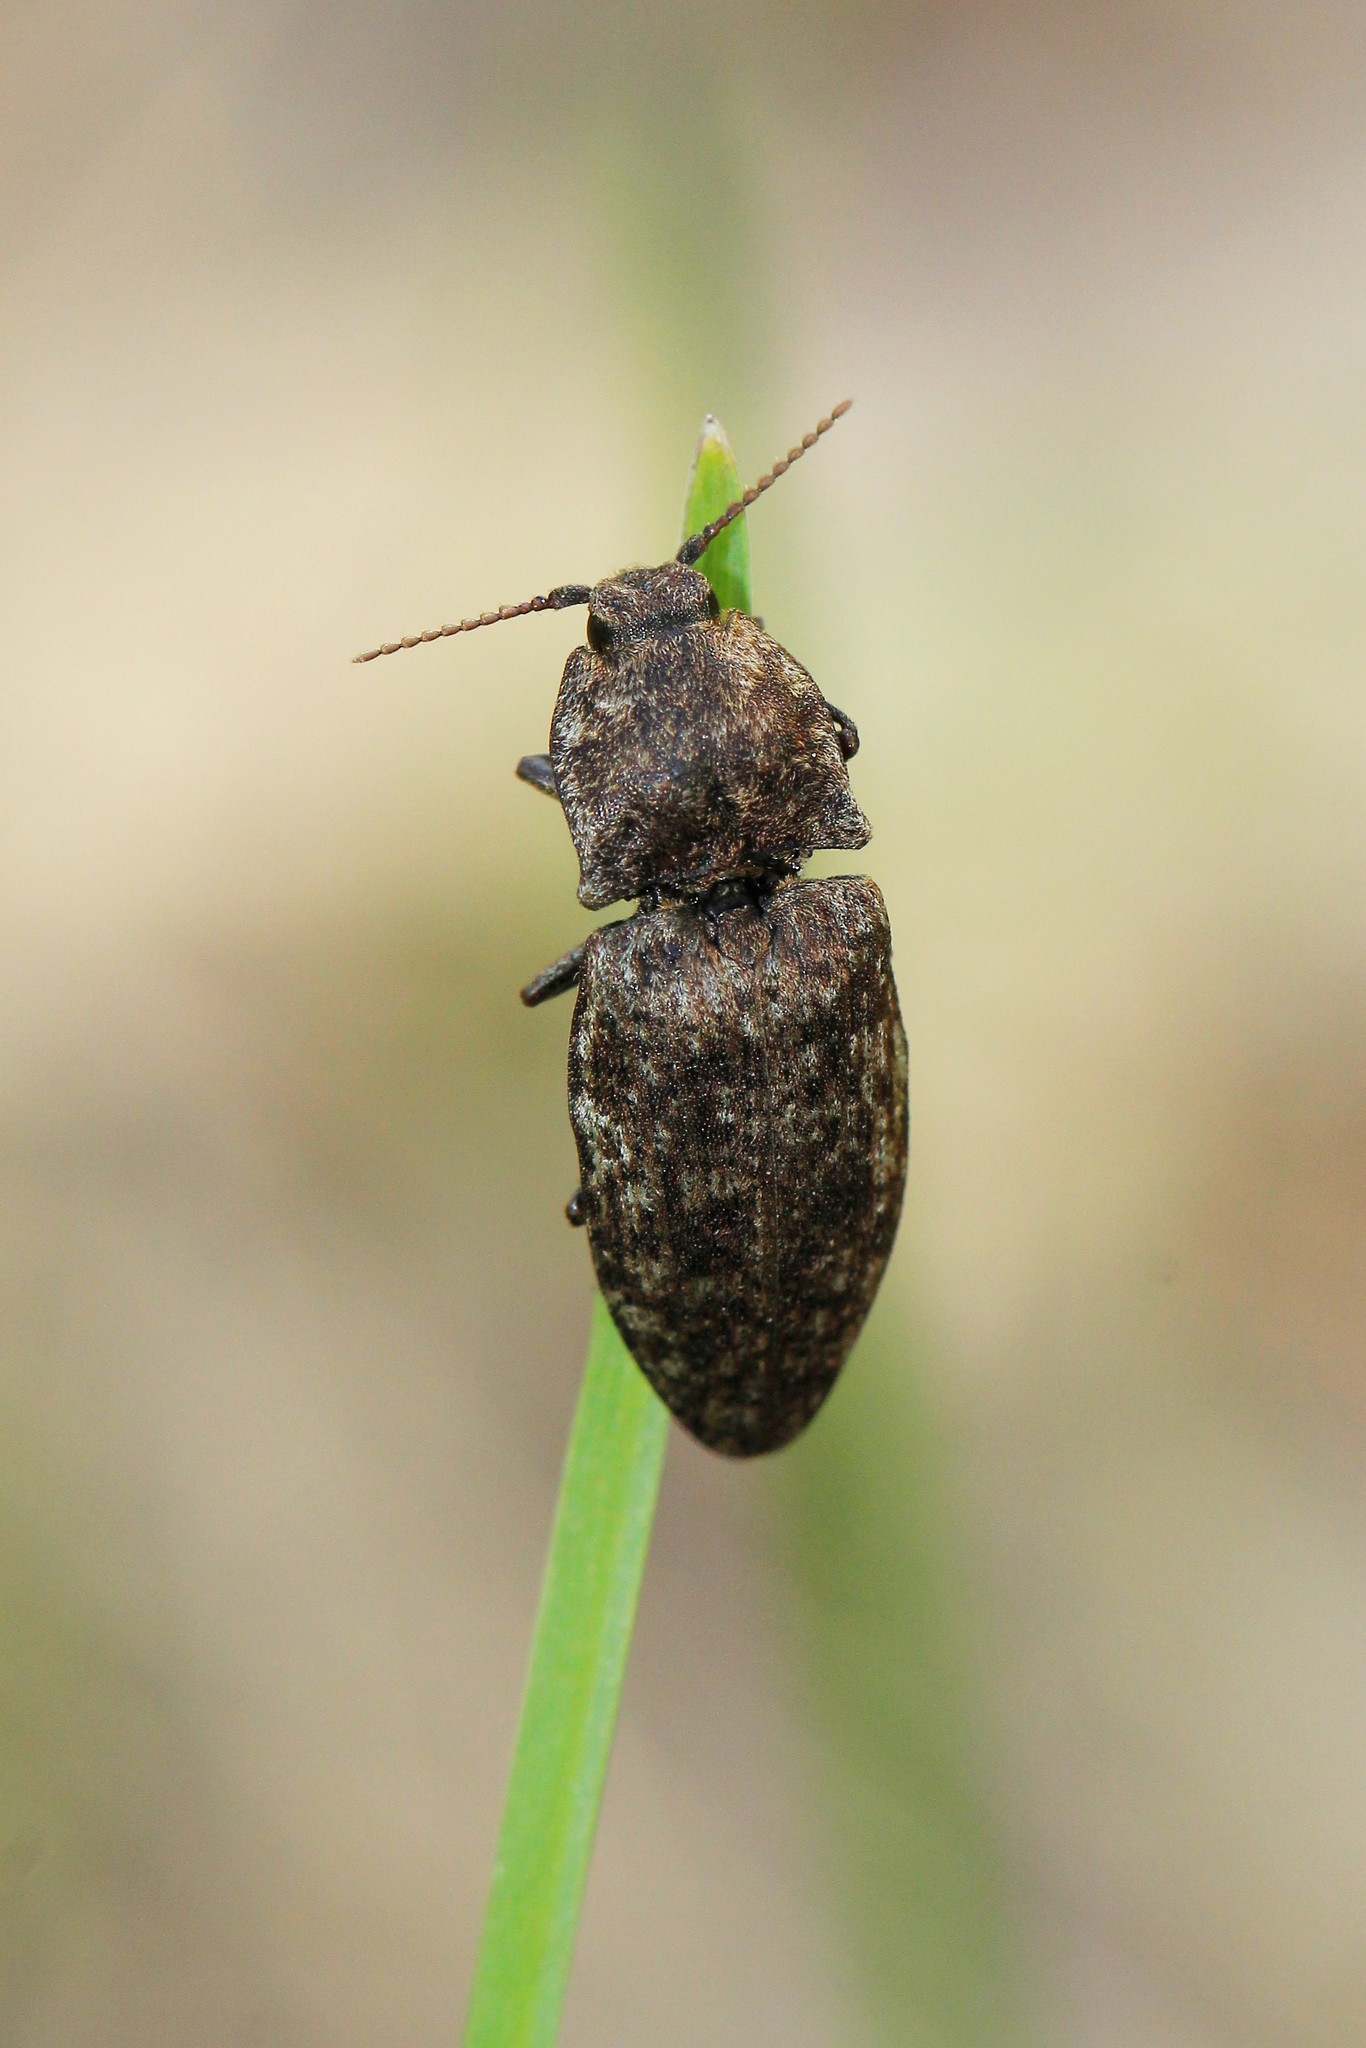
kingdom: Animalia
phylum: Arthropoda
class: Insecta
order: Coleoptera
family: Elateridae
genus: Agrypnus
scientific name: Agrypnus murinus
